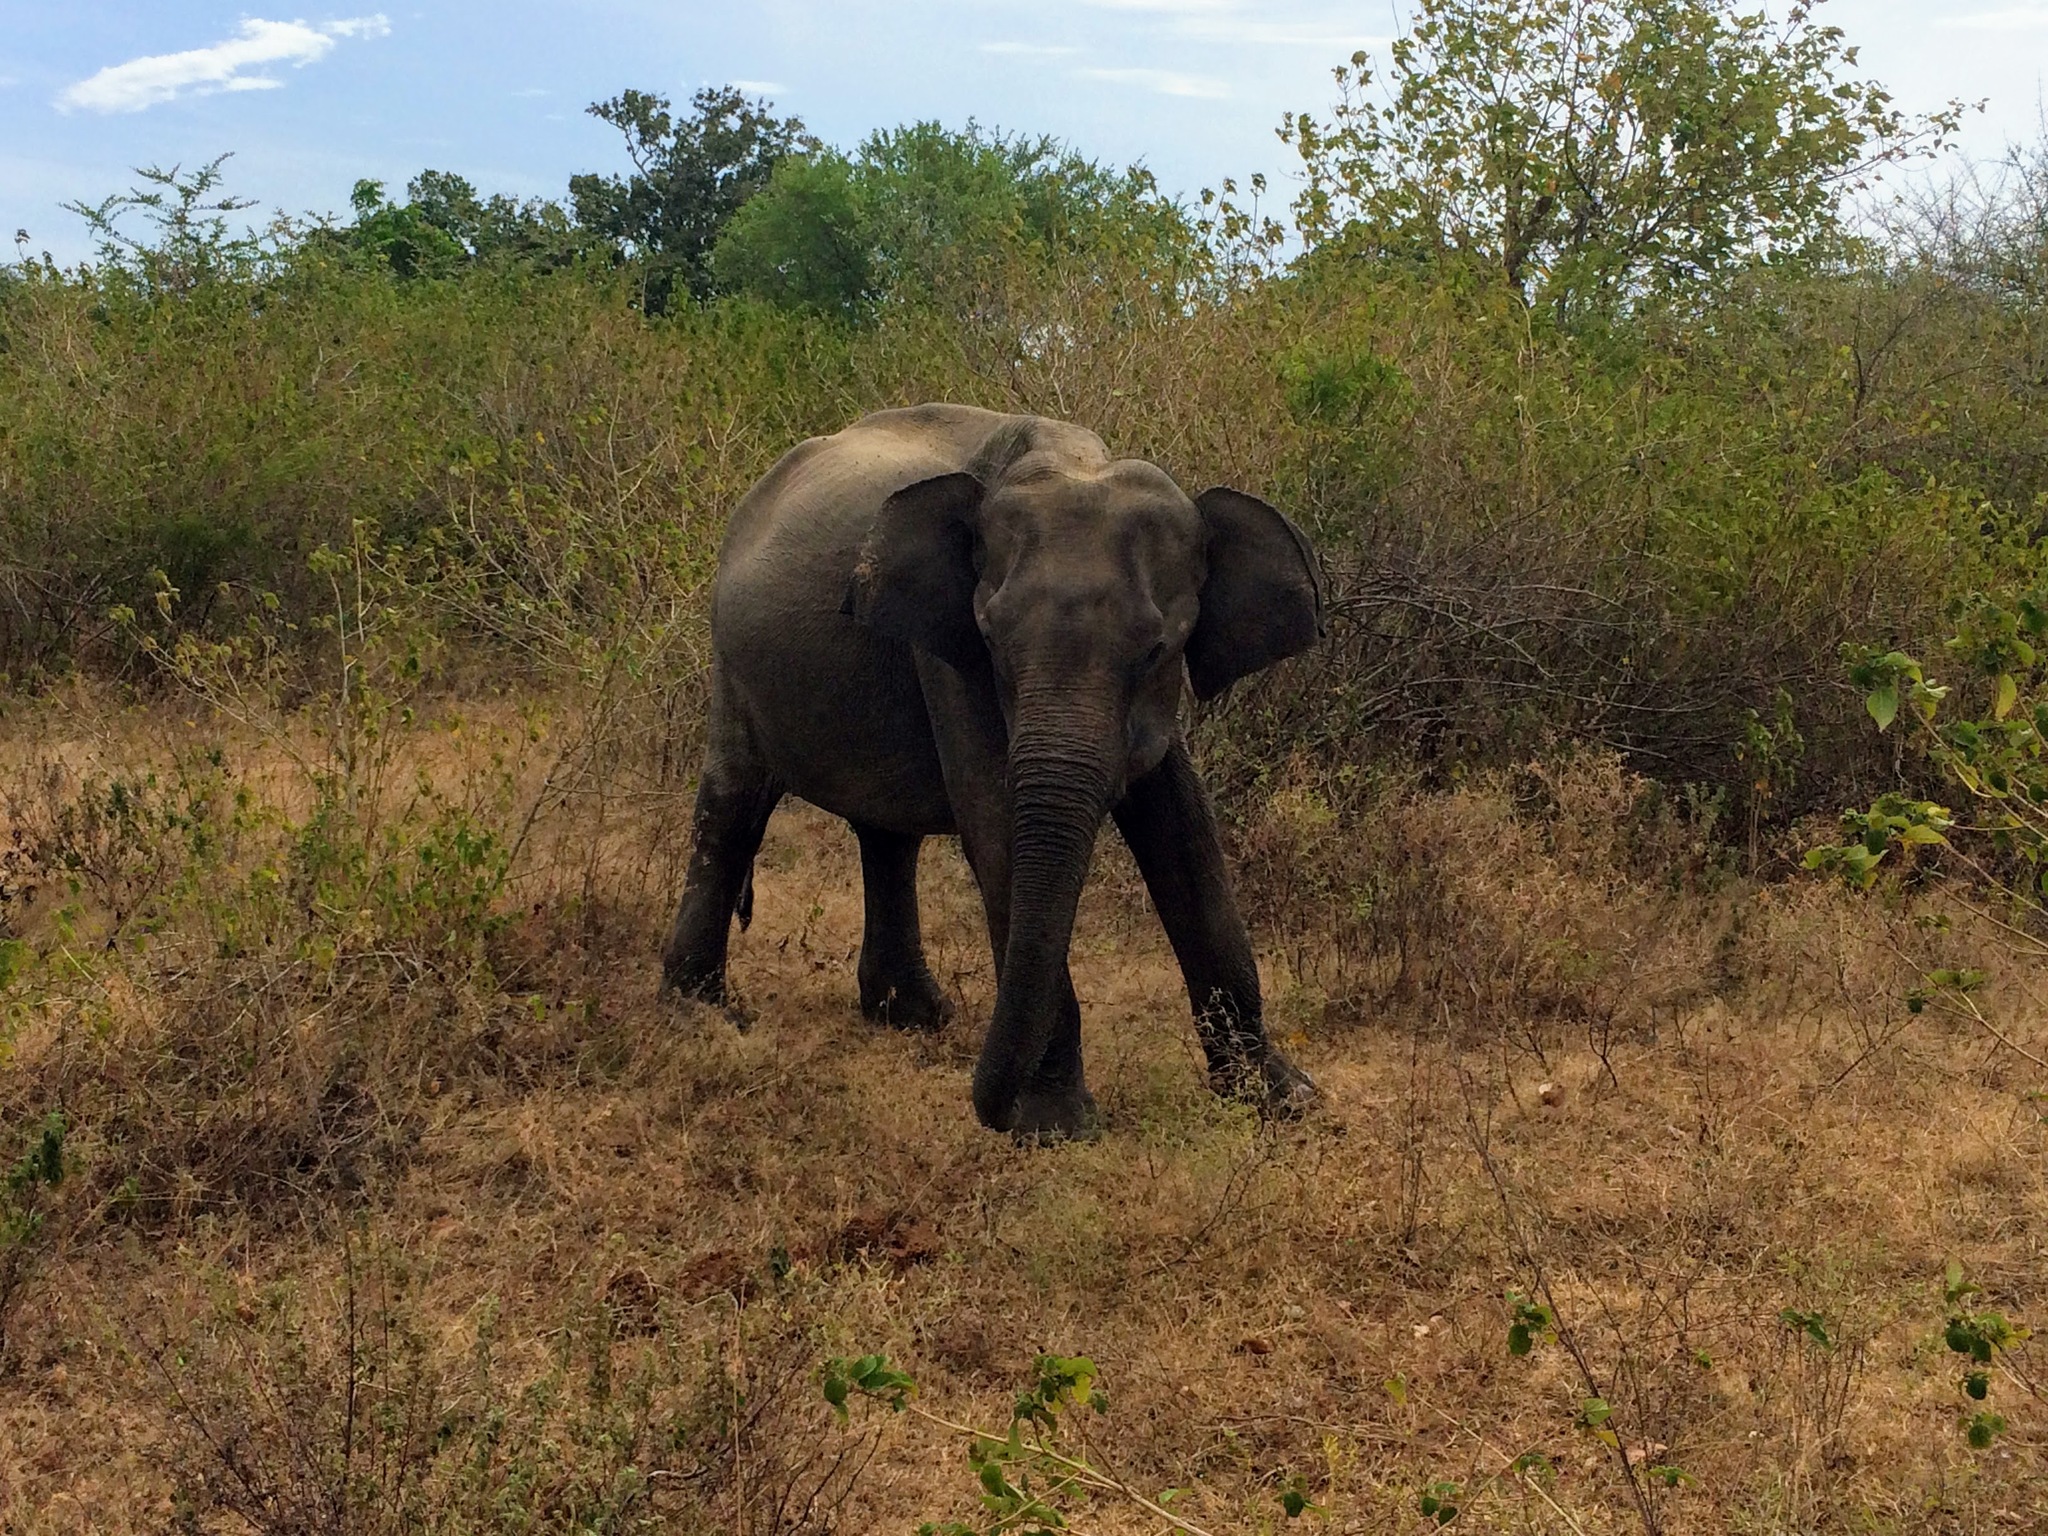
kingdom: Animalia
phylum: Chordata
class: Mammalia
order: Proboscidea
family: Elephantidae
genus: Elephas
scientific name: Elephas maximus
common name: Asian elephant
